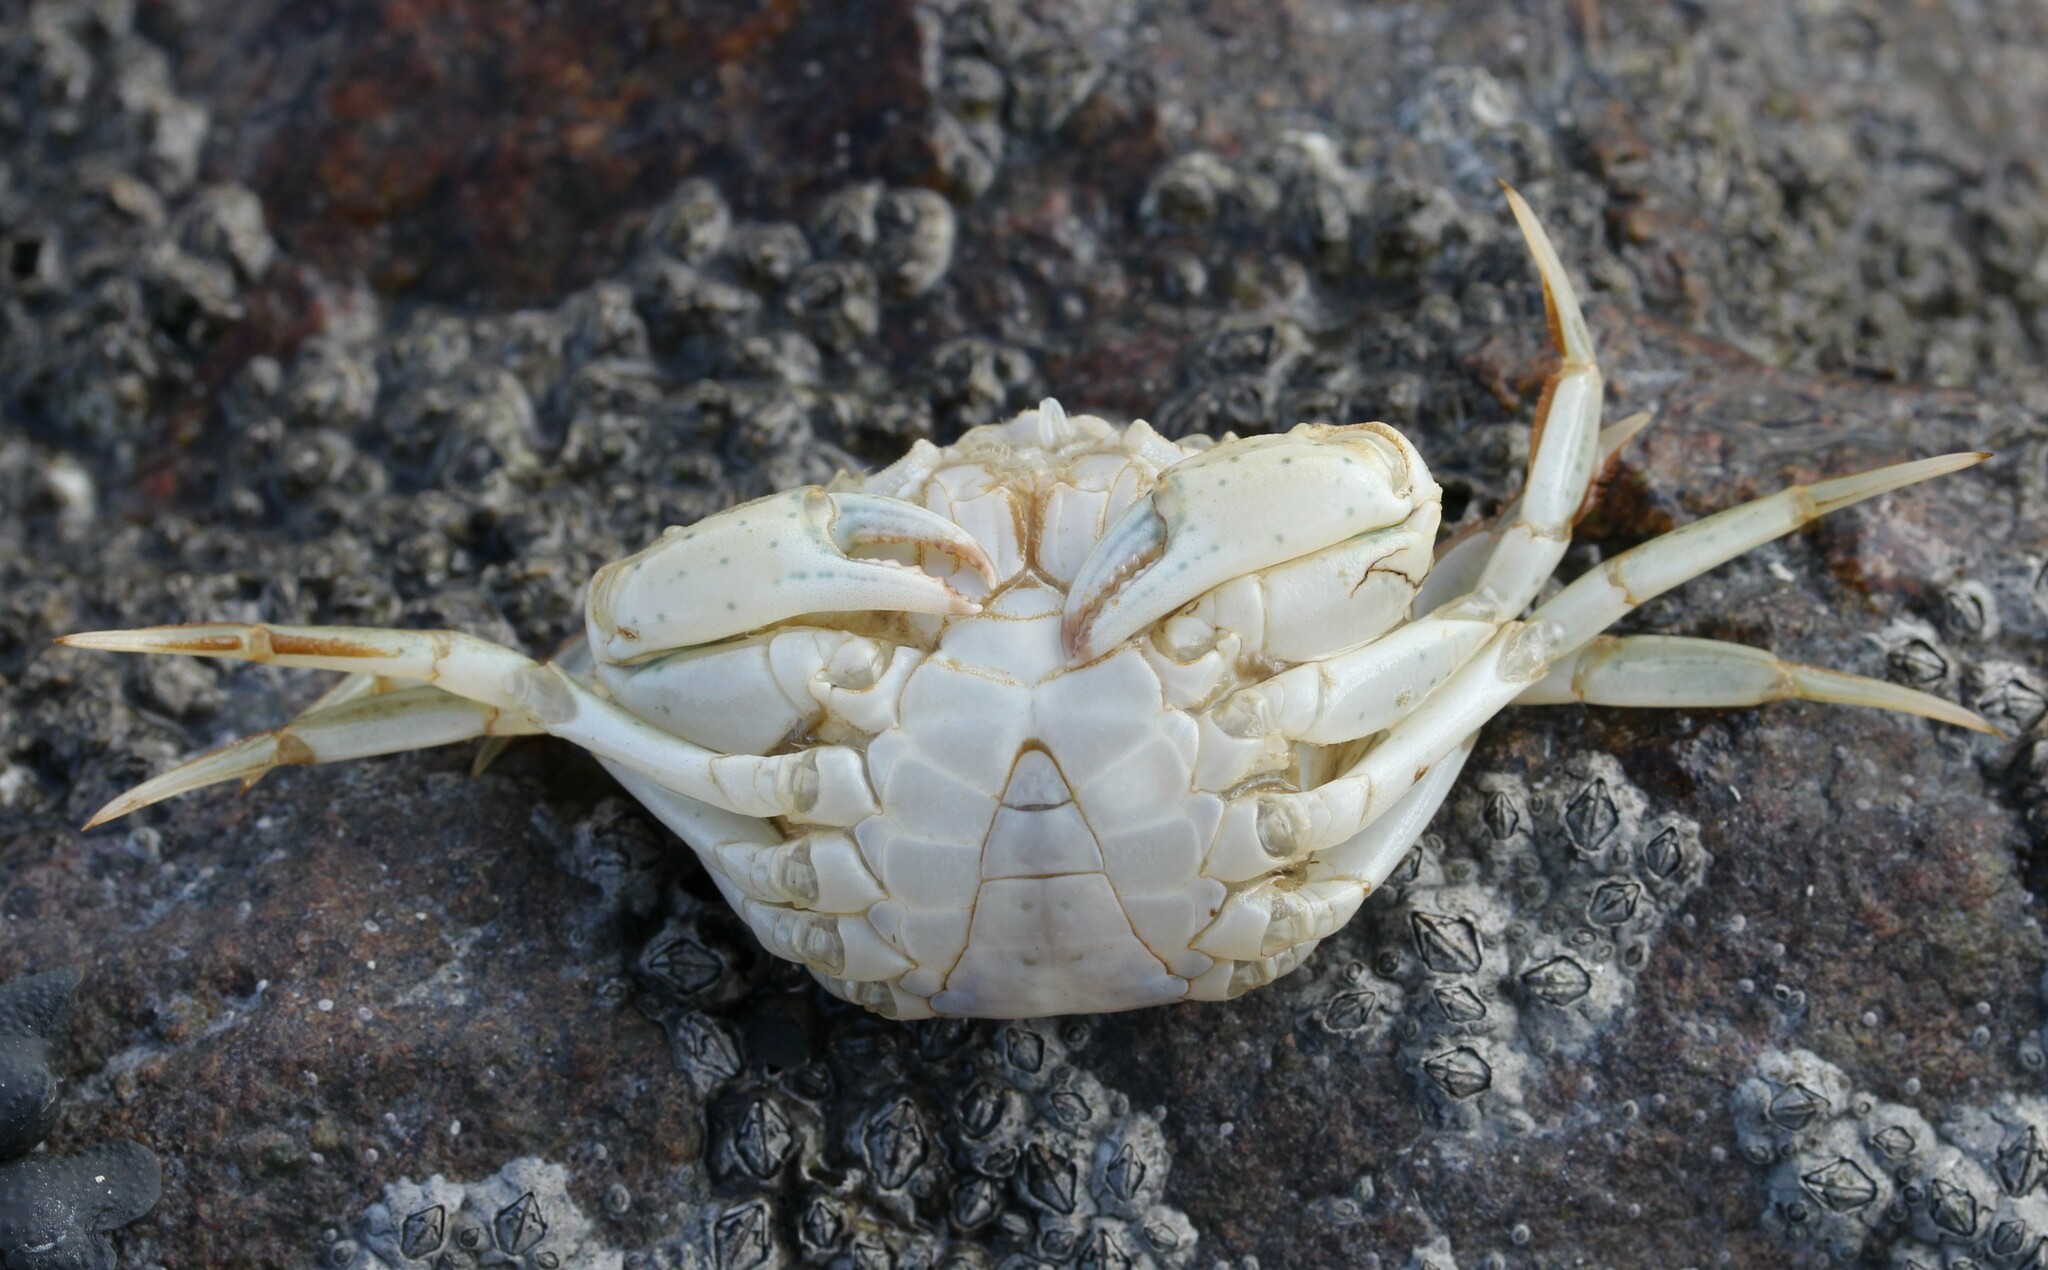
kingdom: Animalia
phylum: Arthropoda
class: Malacostraca
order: Decapoda
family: Carcinidae
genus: Carcinus
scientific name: Carcinus maenas
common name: European green crab
